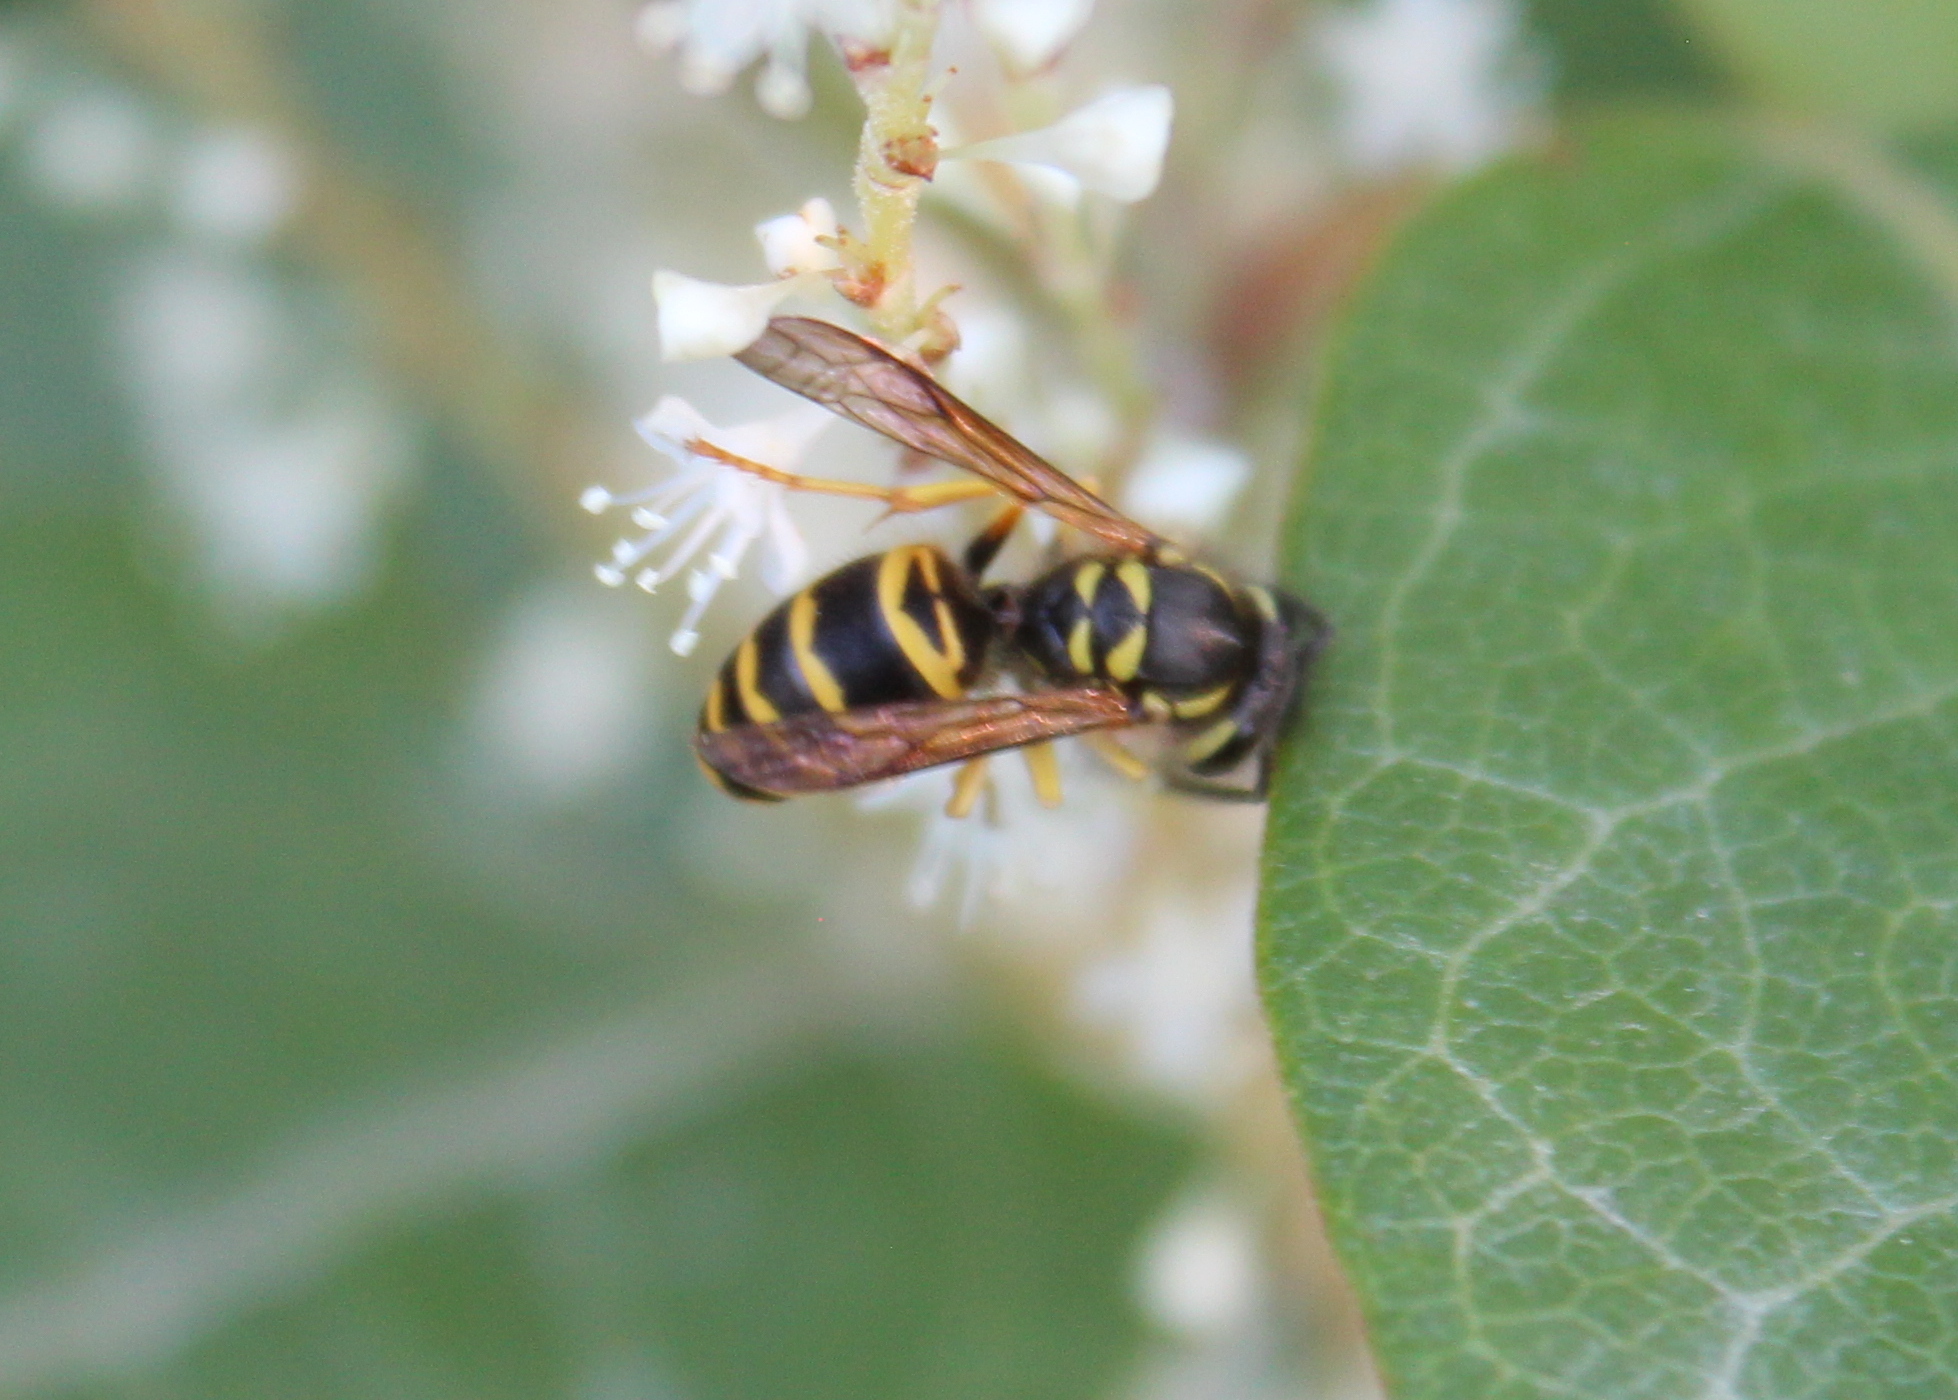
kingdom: Animalia
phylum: Arthropoda
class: Insecta
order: Hymenoptera
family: Vespidae
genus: Vespula
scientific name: Vespula maculifrons
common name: Eastern yellowjacket
